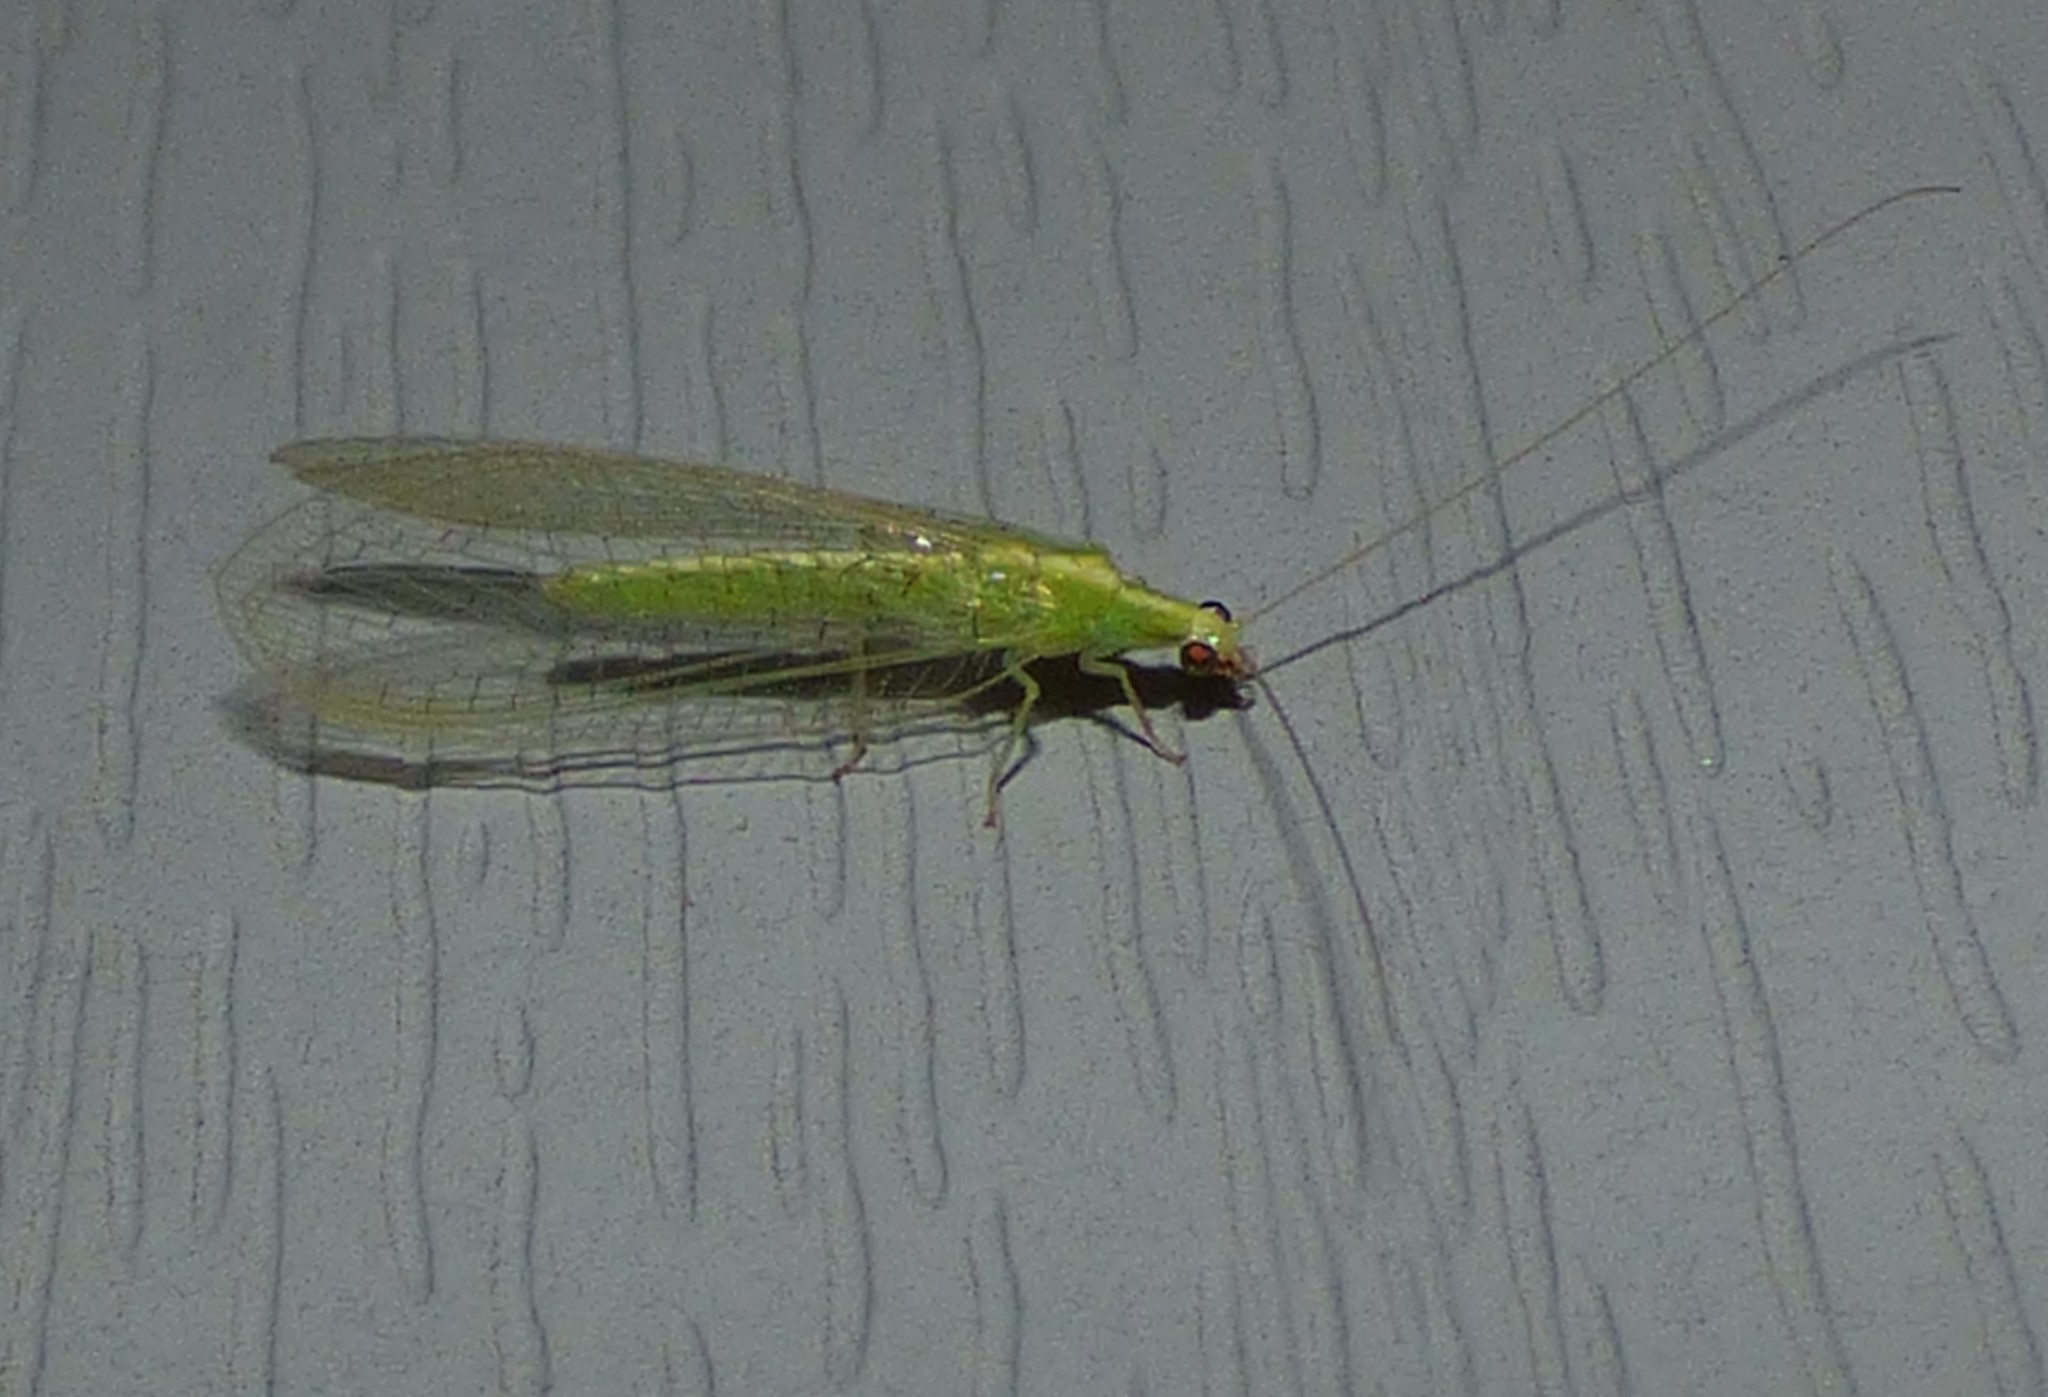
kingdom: Animalia
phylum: Arthropoda
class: Insecta
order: Neuroptera
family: Chrysopidae
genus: Chrysoperla
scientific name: Chrysoperla
